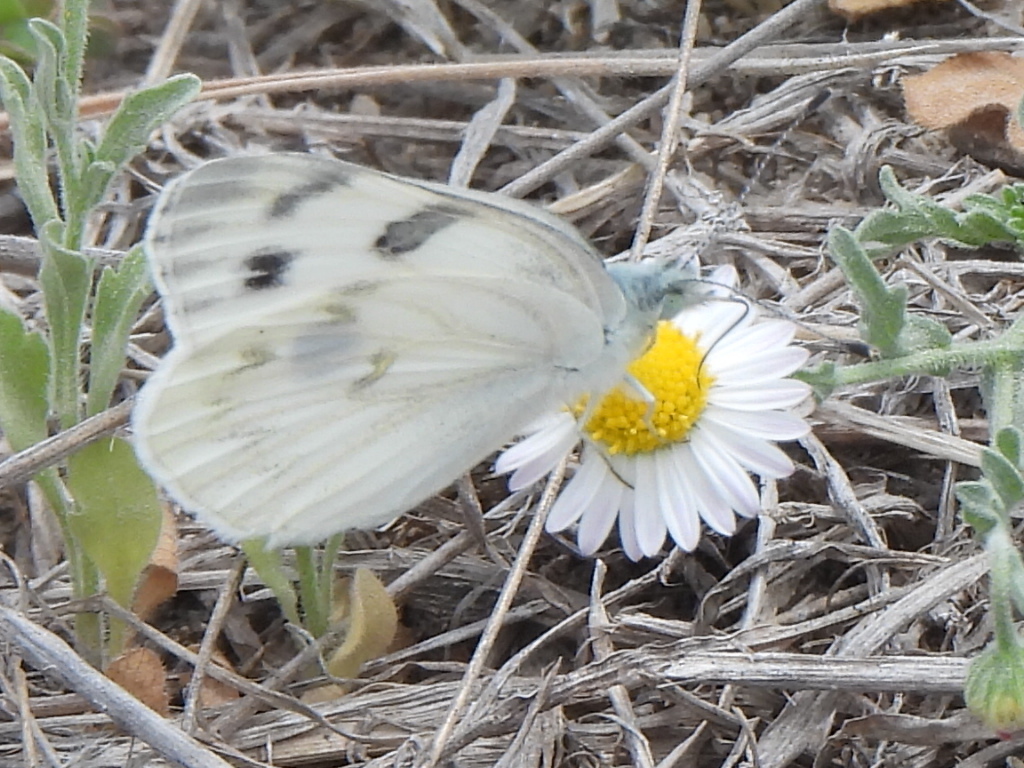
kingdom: Animalia
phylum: Arthropoda
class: Insecta
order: Lepidoptera
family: Pieridae
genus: Pontia
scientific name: Pontia protodice
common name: Checkered white
